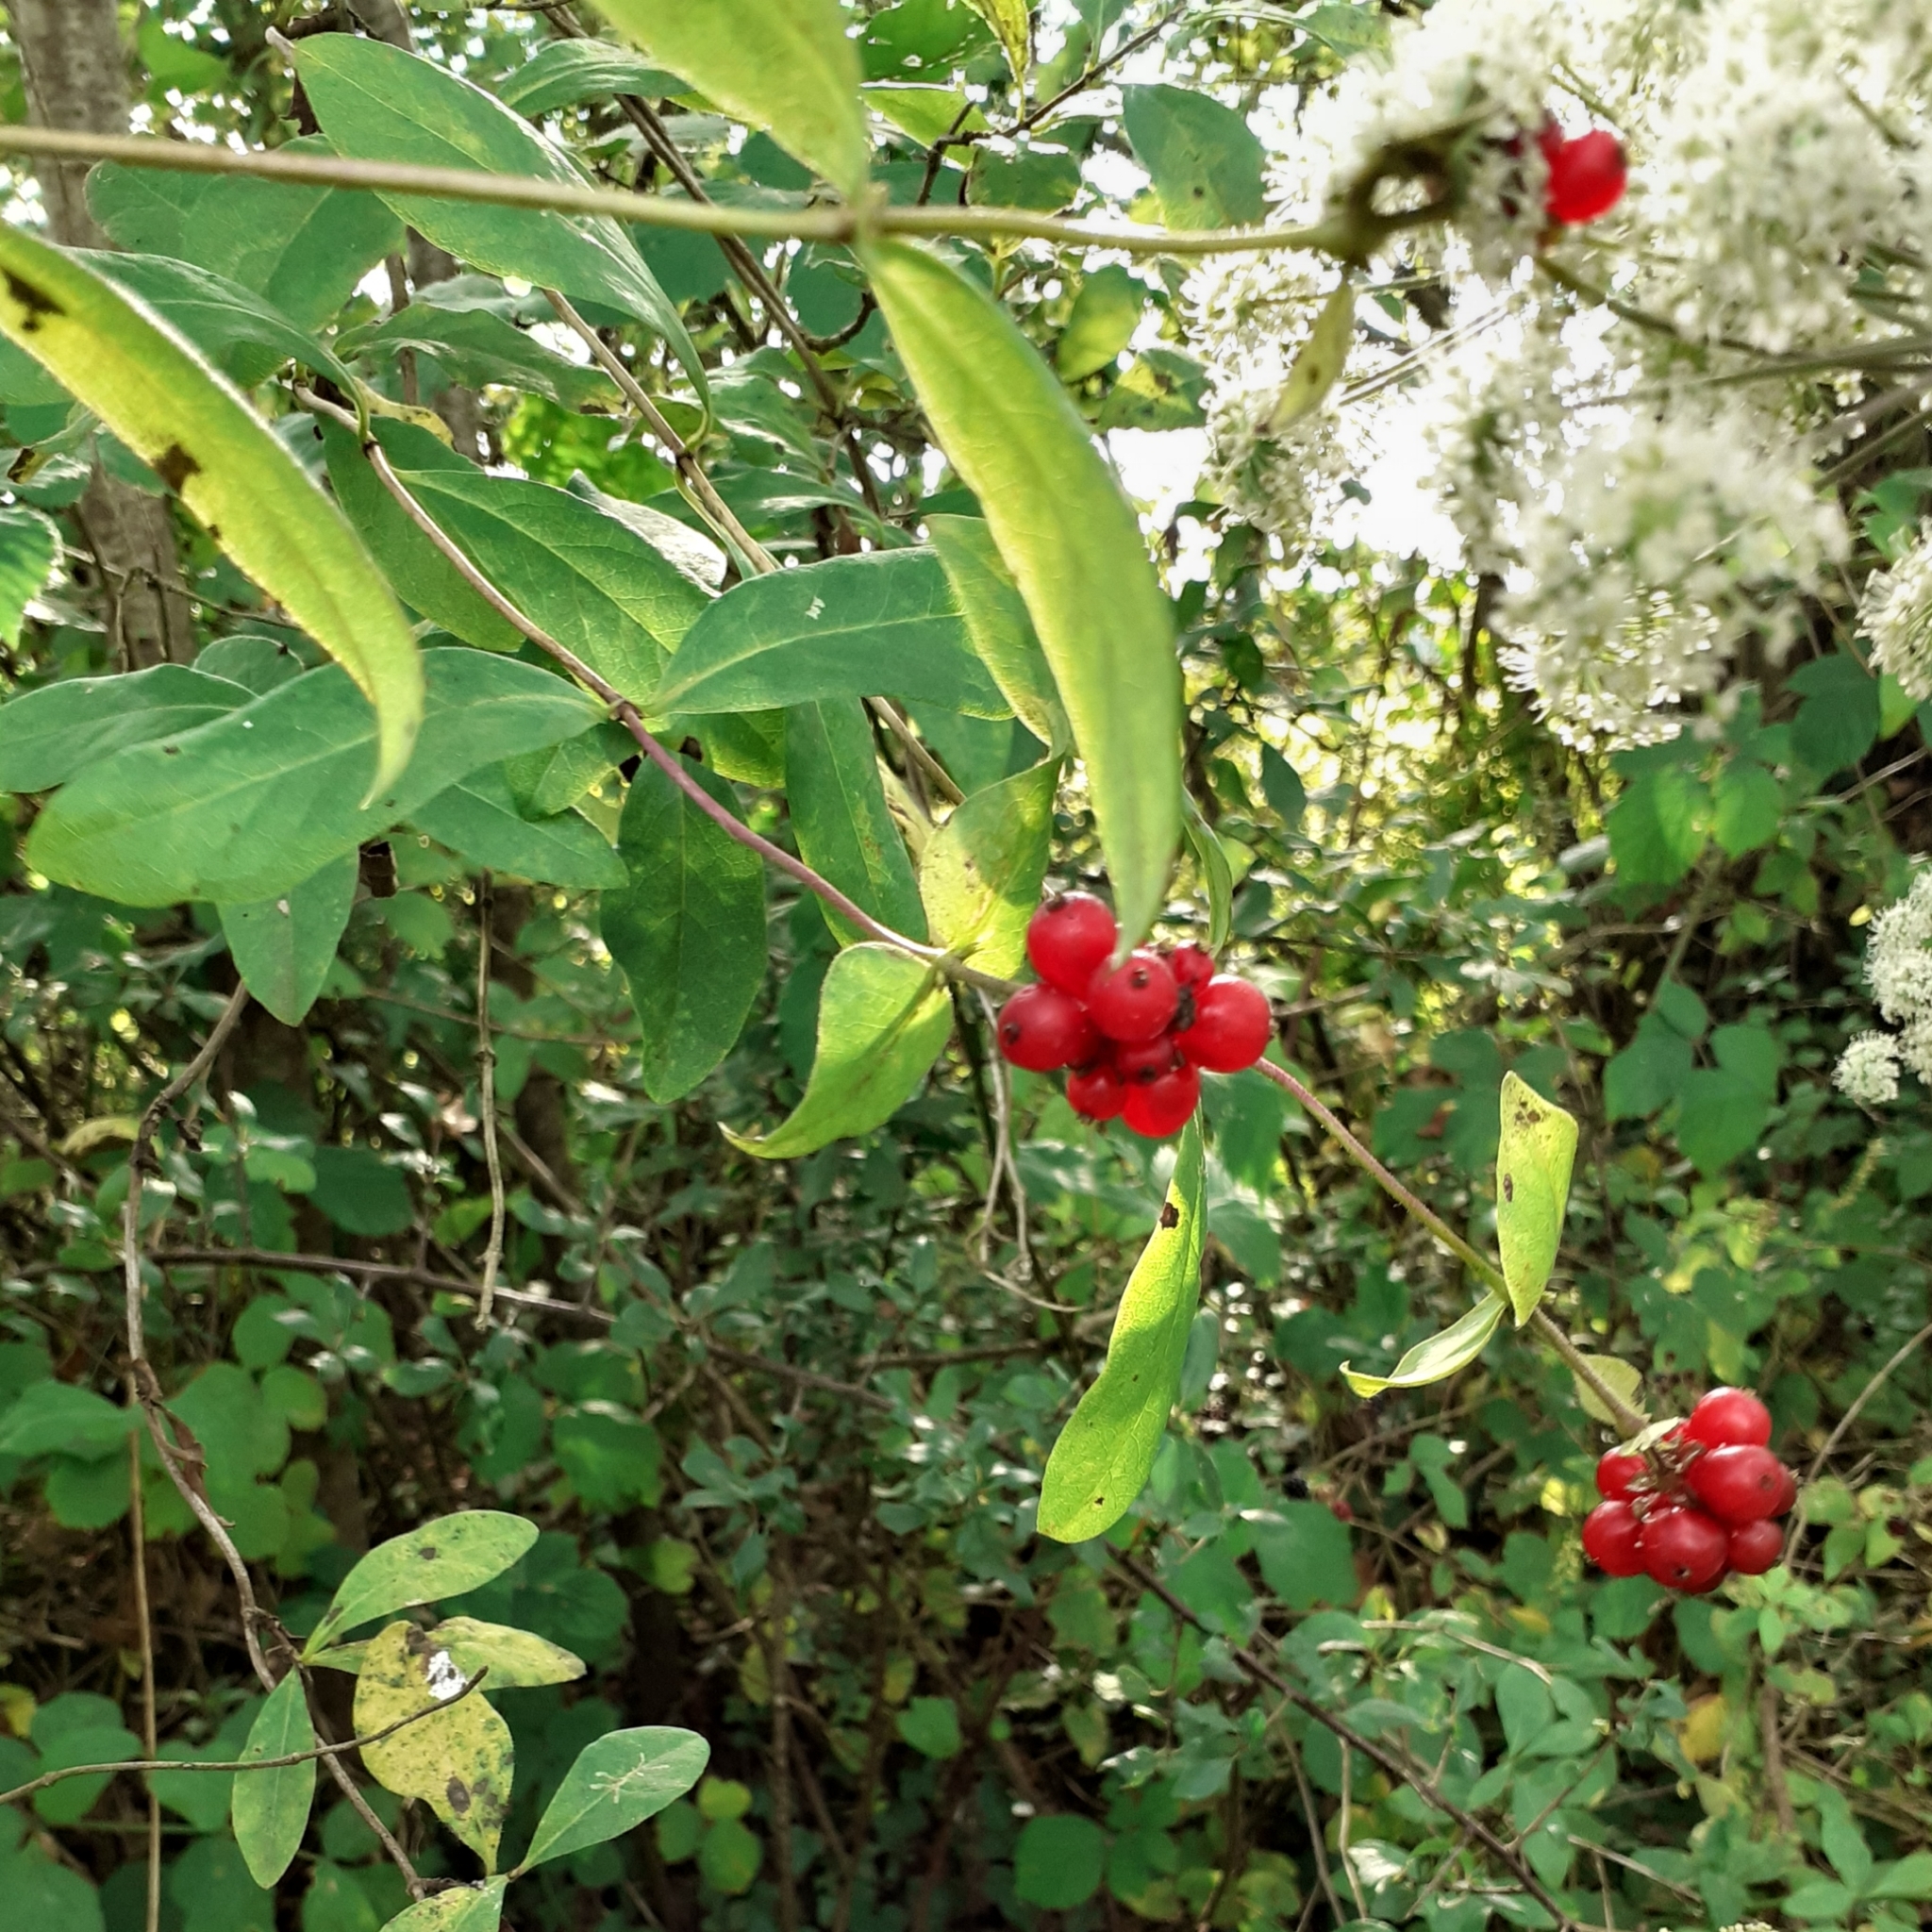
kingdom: Plantae
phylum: Tracheophyta
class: Magnoliopsida
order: Dipsacales
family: Caprifoliaceae
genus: Lonicera
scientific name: Lonicera periclymenum
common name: European honeysuckle
